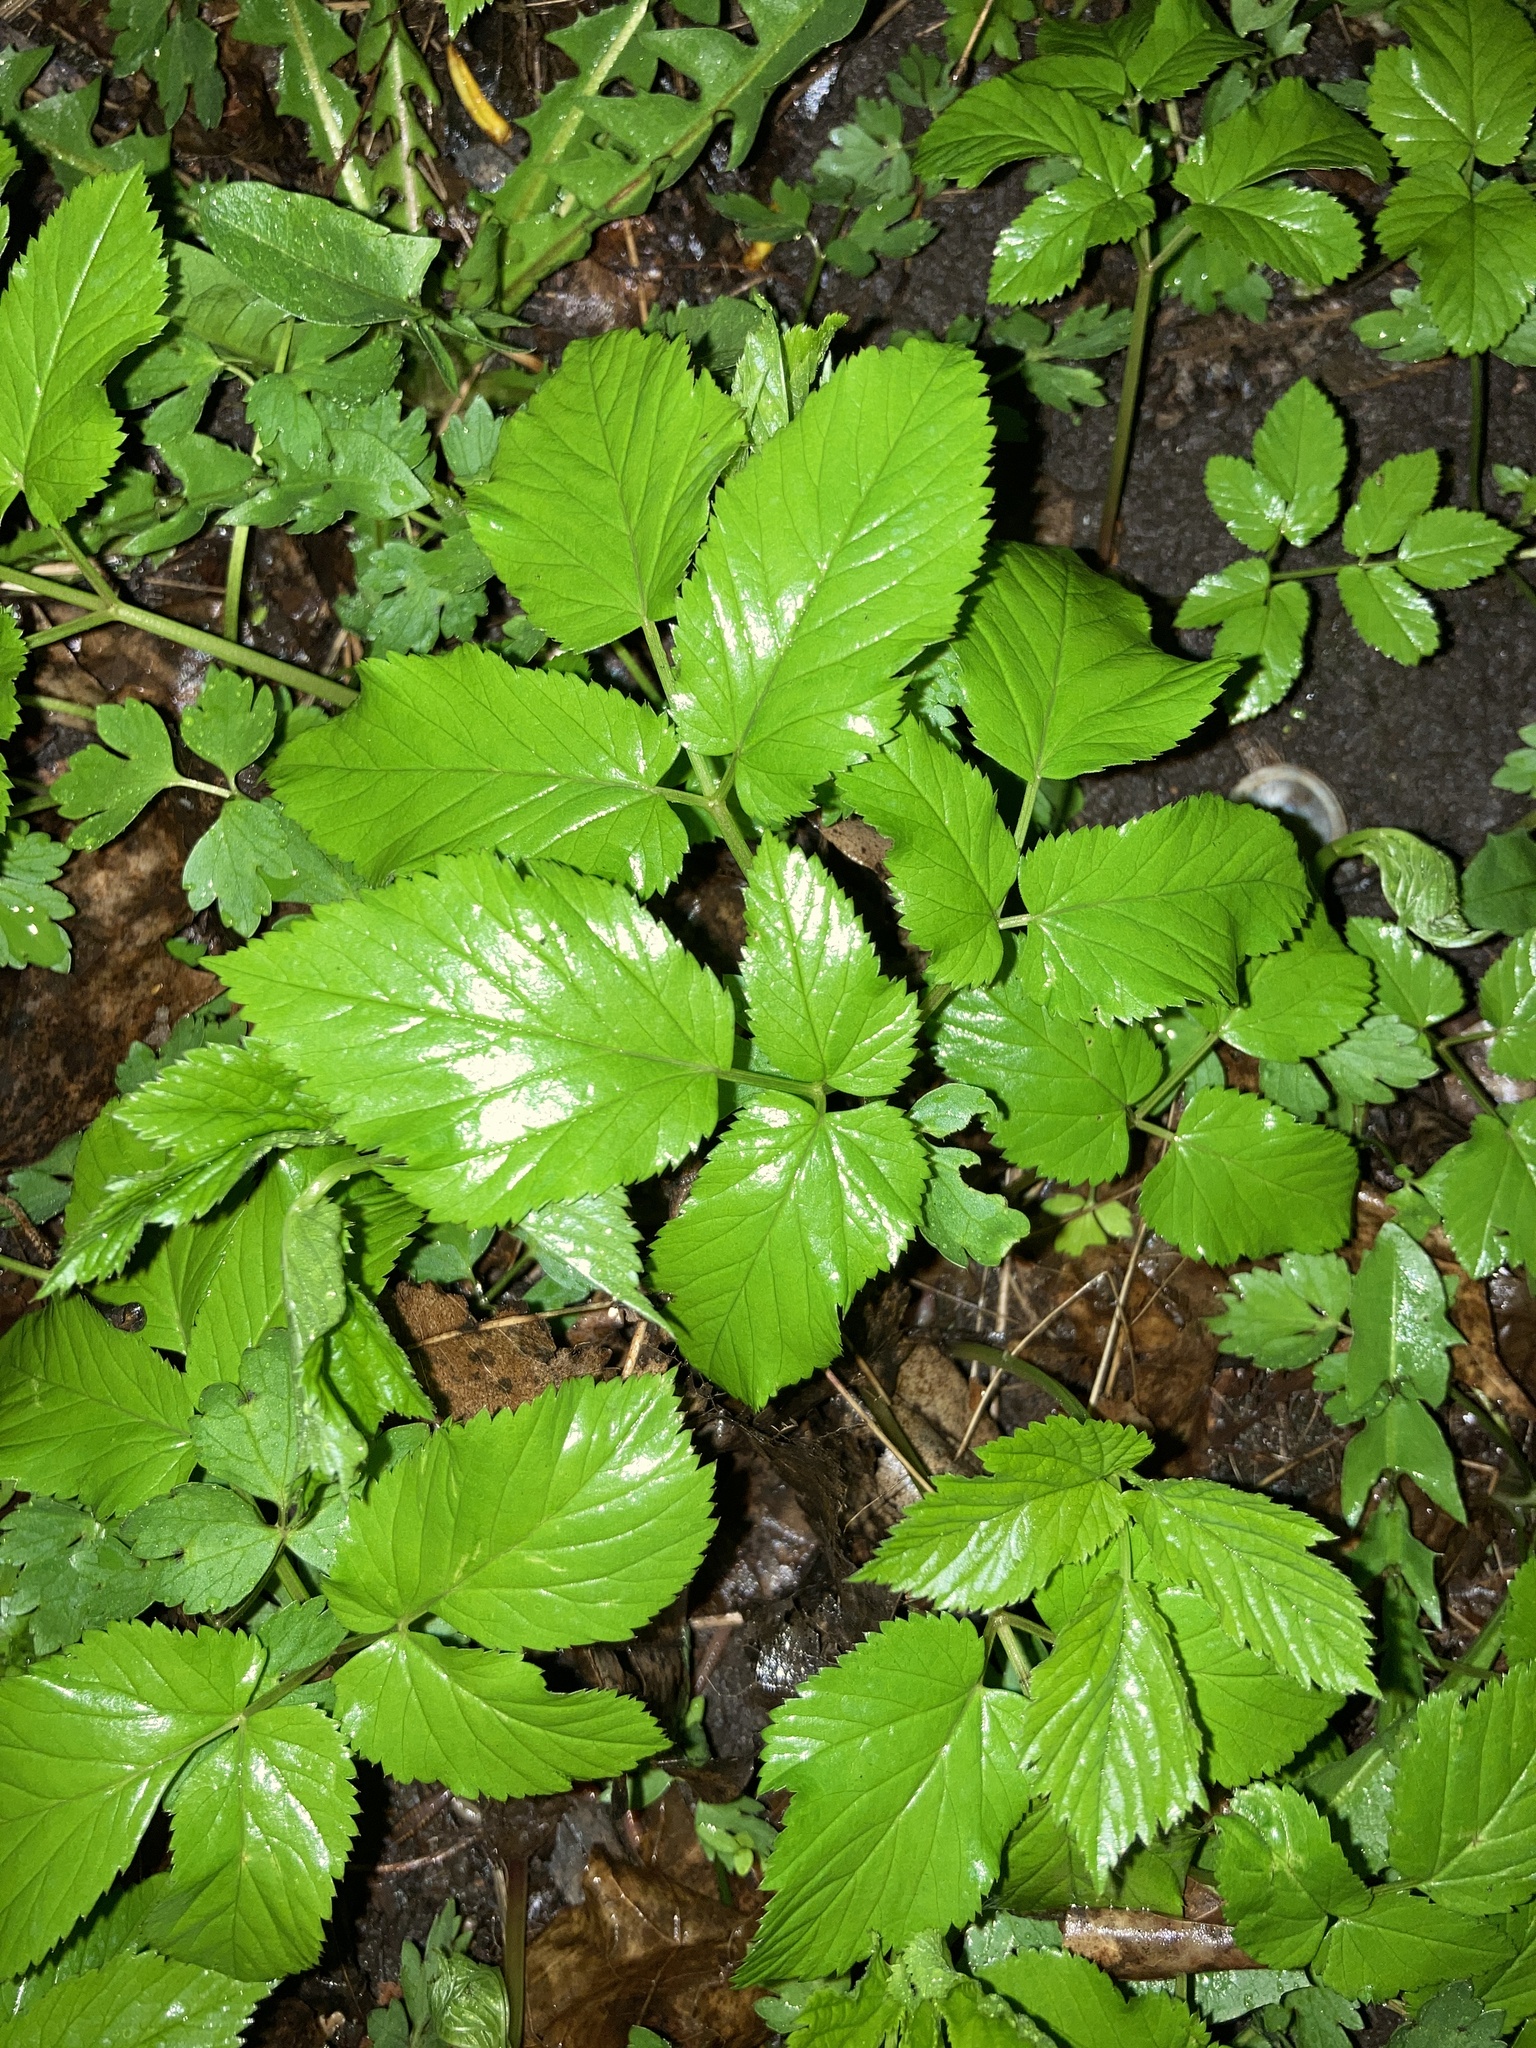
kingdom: Plantae
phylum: Tracheophyta
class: Magnoliopsida
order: Apiales
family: Apiaceae
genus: Aegopodium
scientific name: Aegopodium podagraria
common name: Ground-elder
